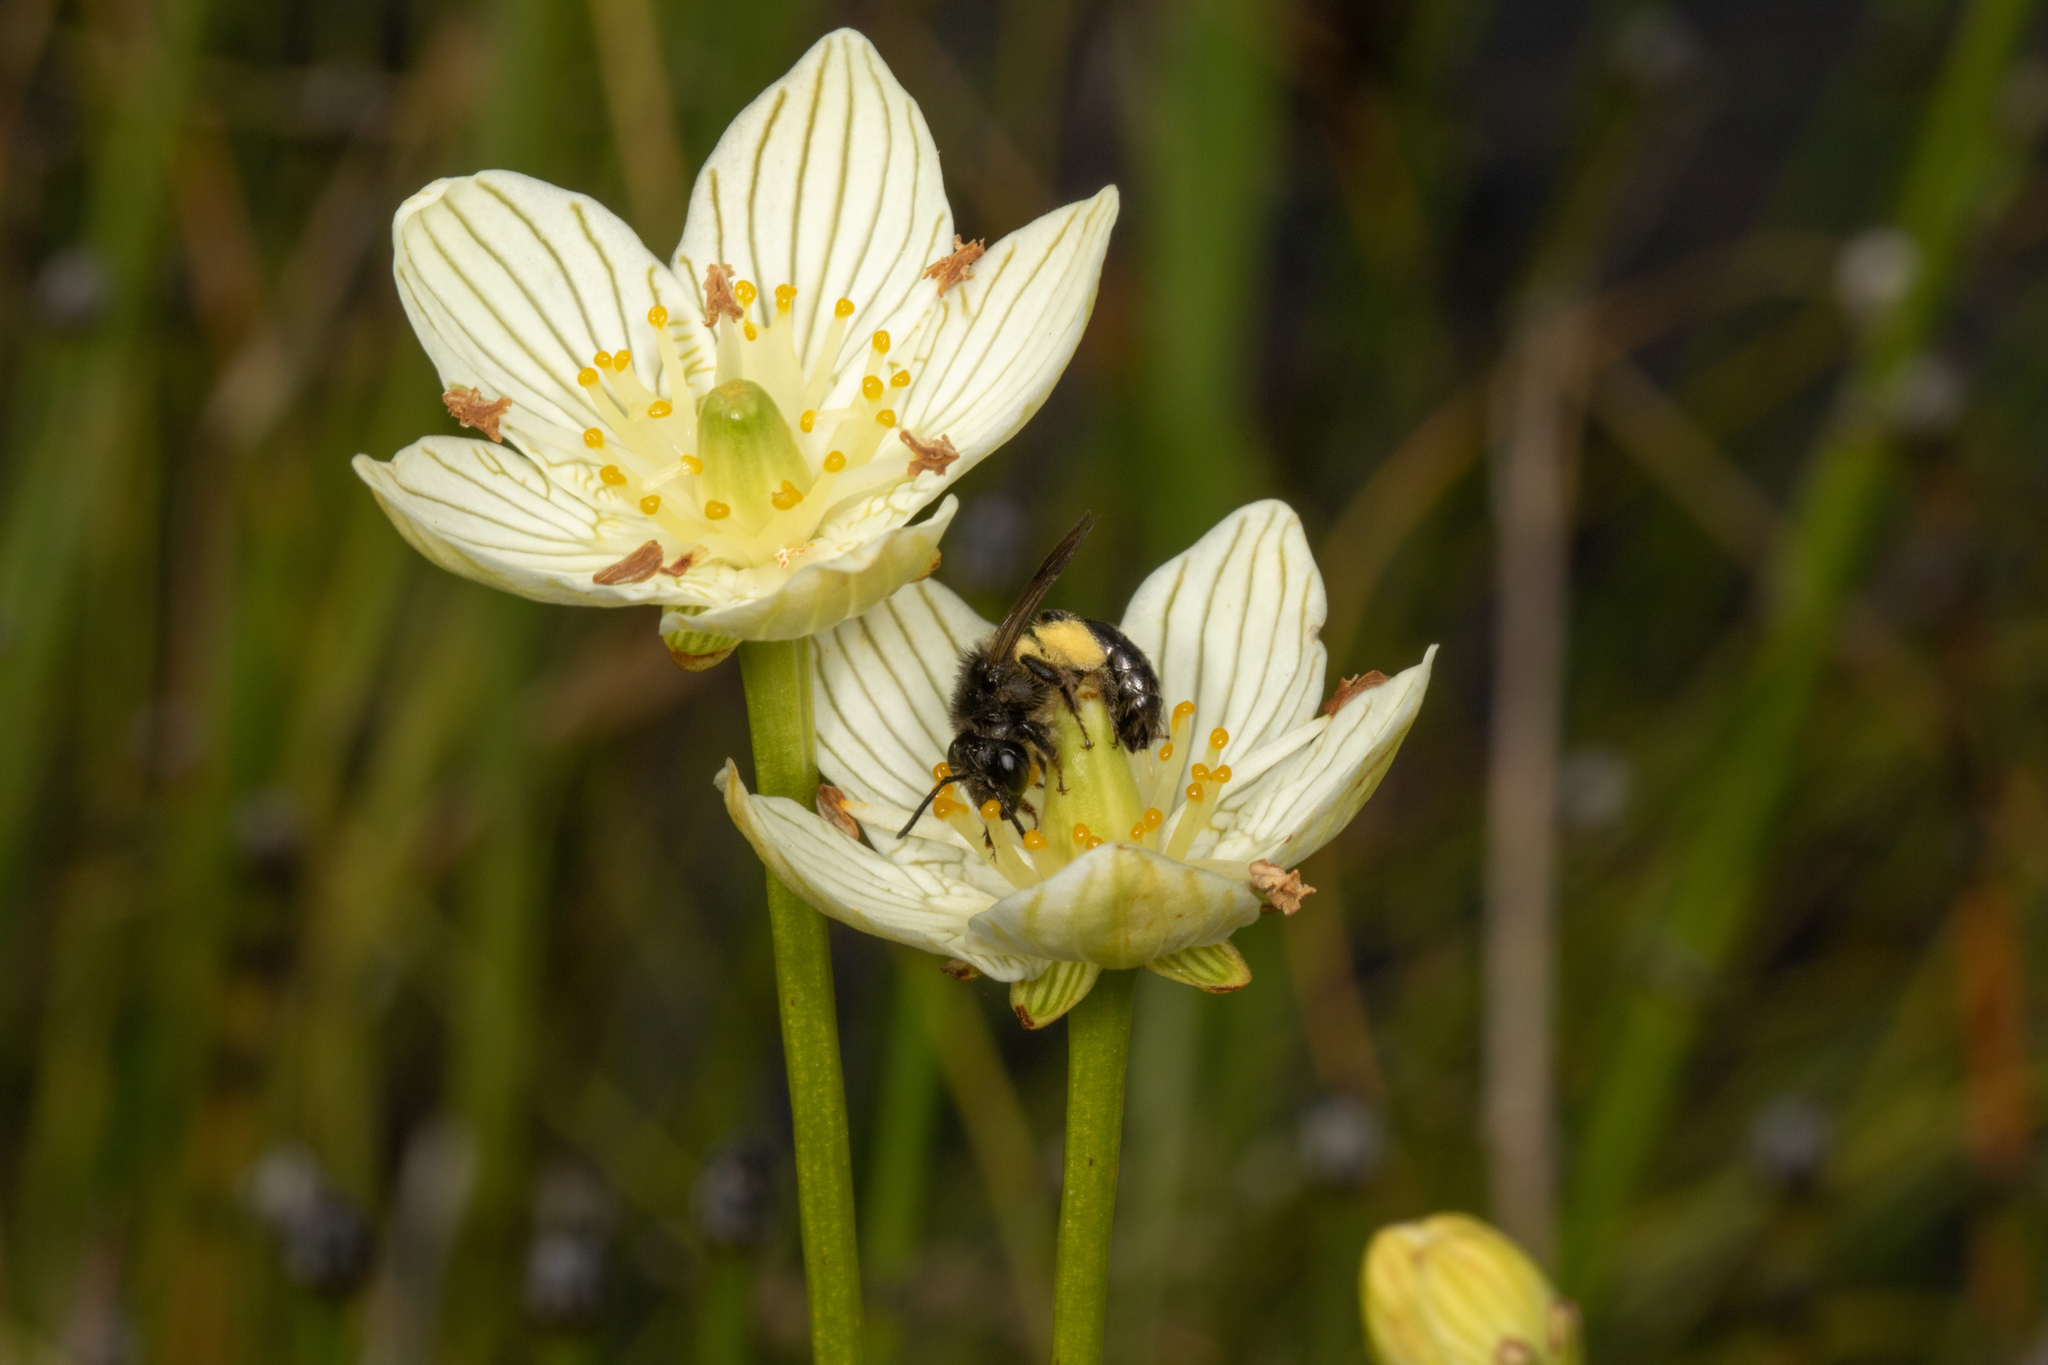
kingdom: Animalia
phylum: Arthropoda
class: Insecta
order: Hymenoptera
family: Andrenidae
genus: Andrena
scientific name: Andrena parnassiae
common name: Parnassia miner
